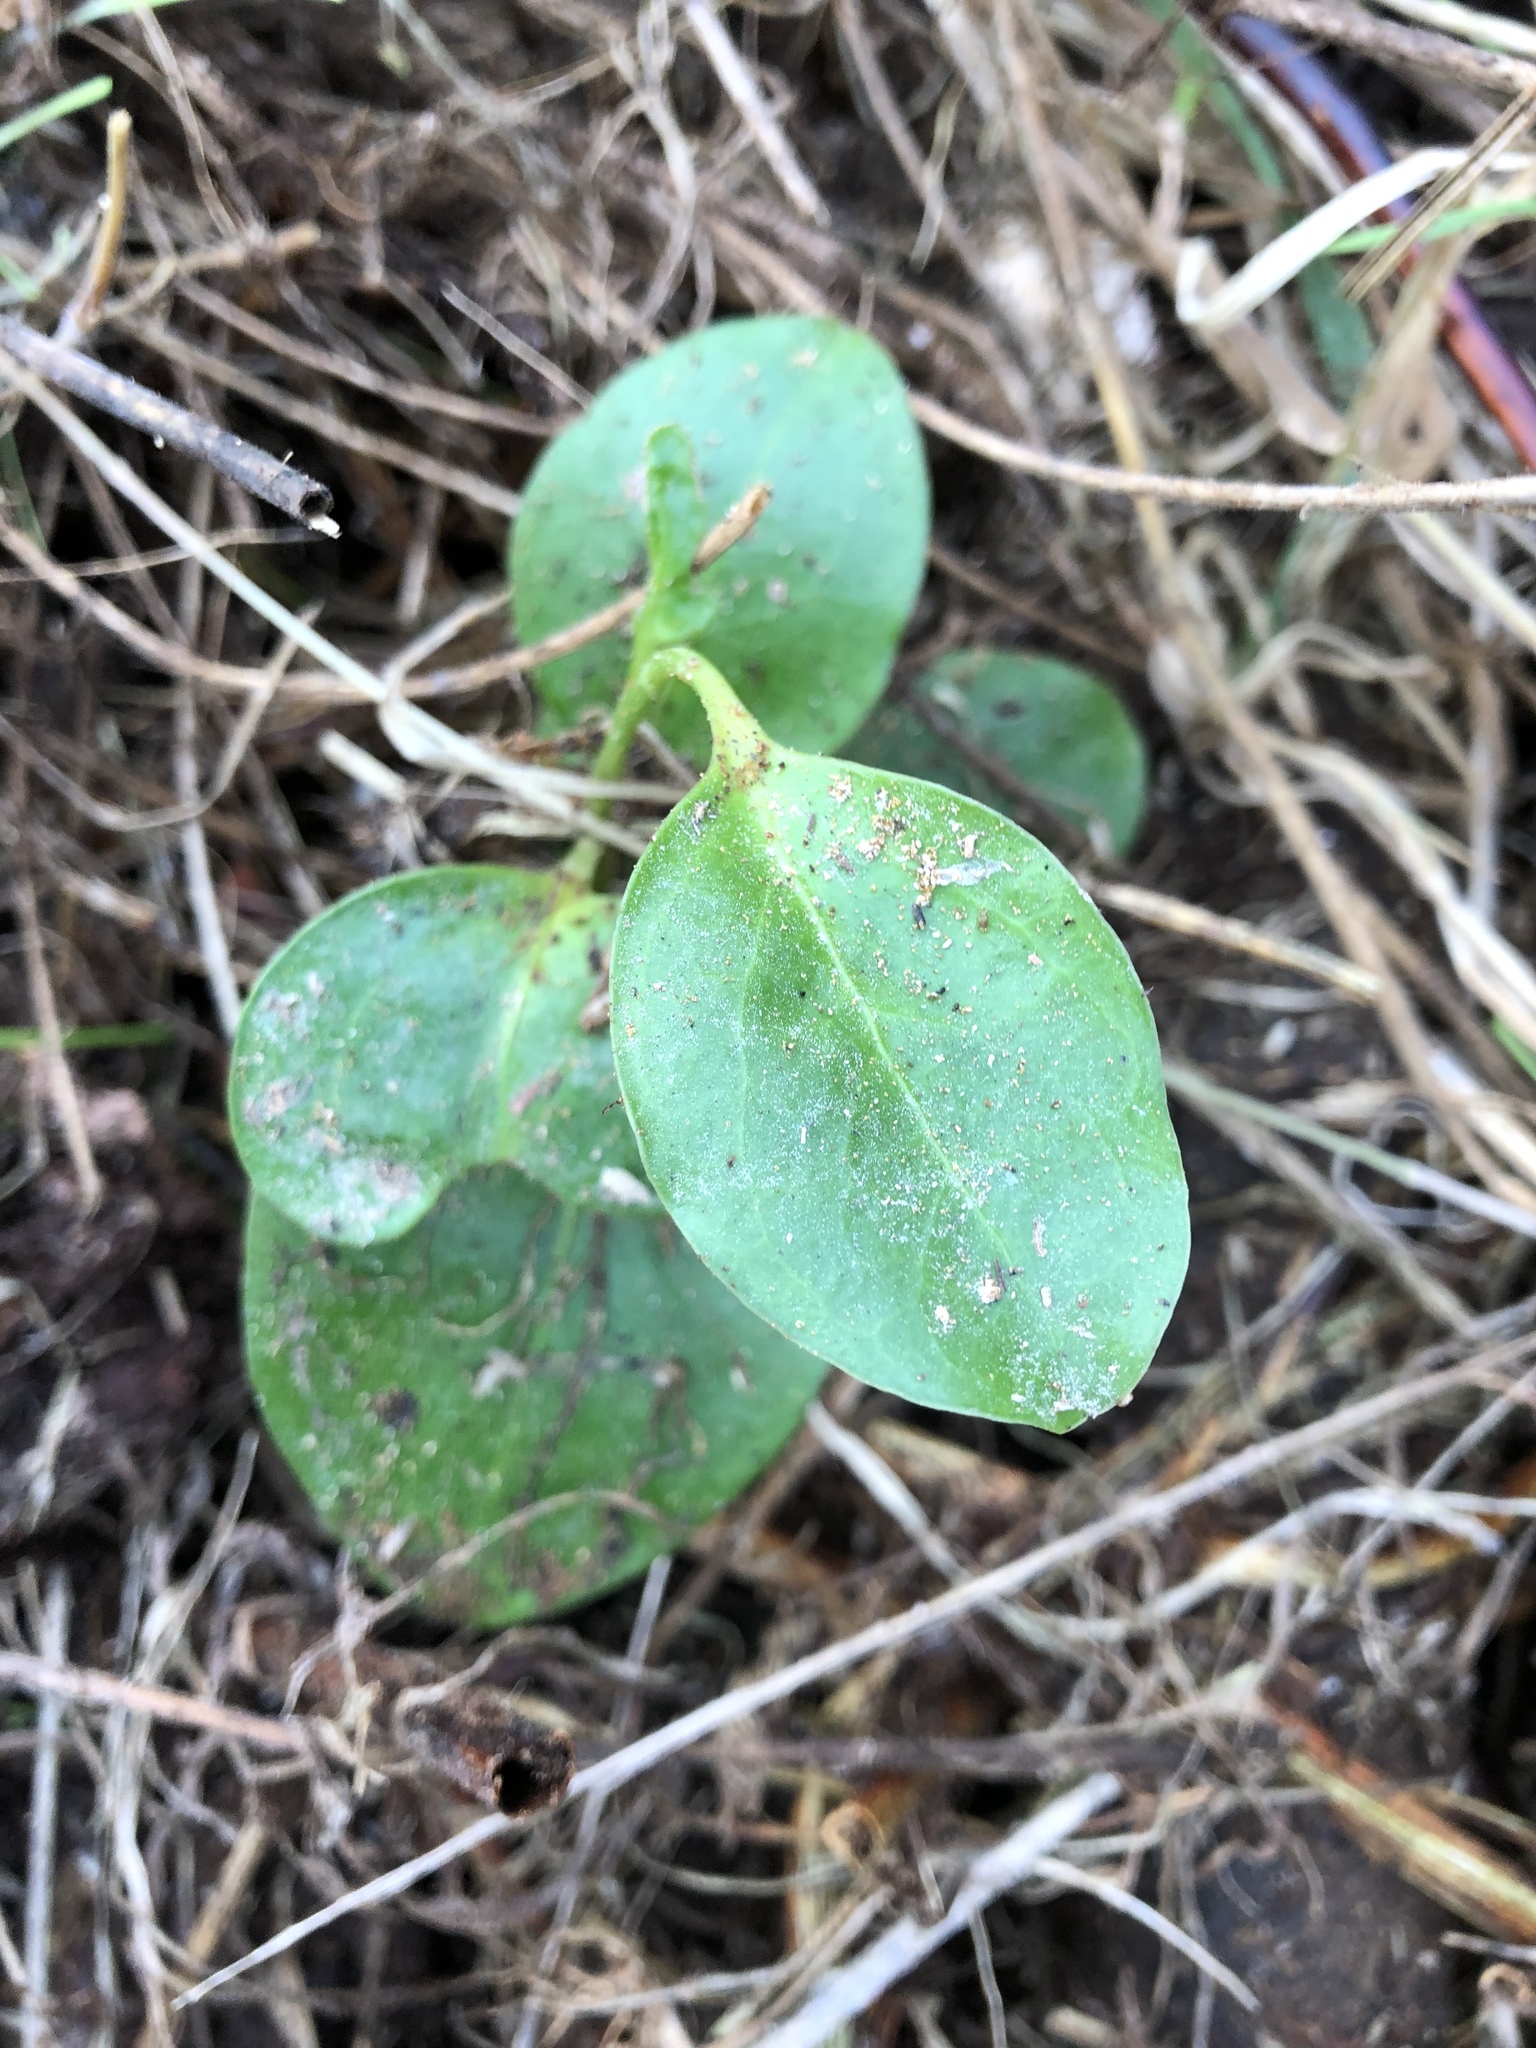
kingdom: Plantae
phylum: Tracheophyta
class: Magnoliopsida
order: Apiales
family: Griseliniaceae
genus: Griselinia
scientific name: Griselinia littoralis
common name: New zealand broadleaf
